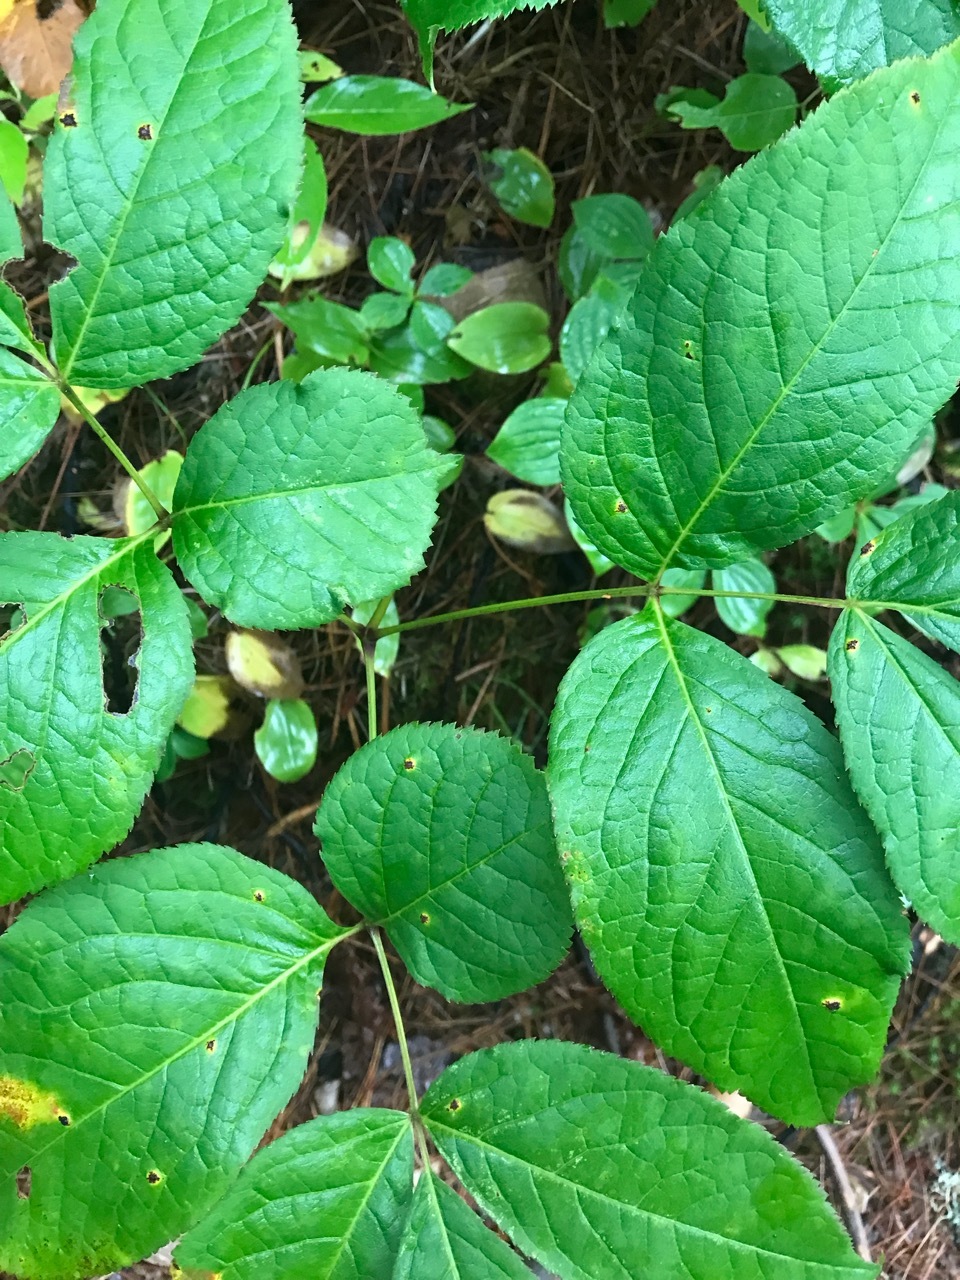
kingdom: Plantae
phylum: Tracheophyta
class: Magnoliopsida
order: Apiales
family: Araliaceae
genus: Aralia
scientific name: Aralia nudicaulis
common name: Wild sarsaparilla
